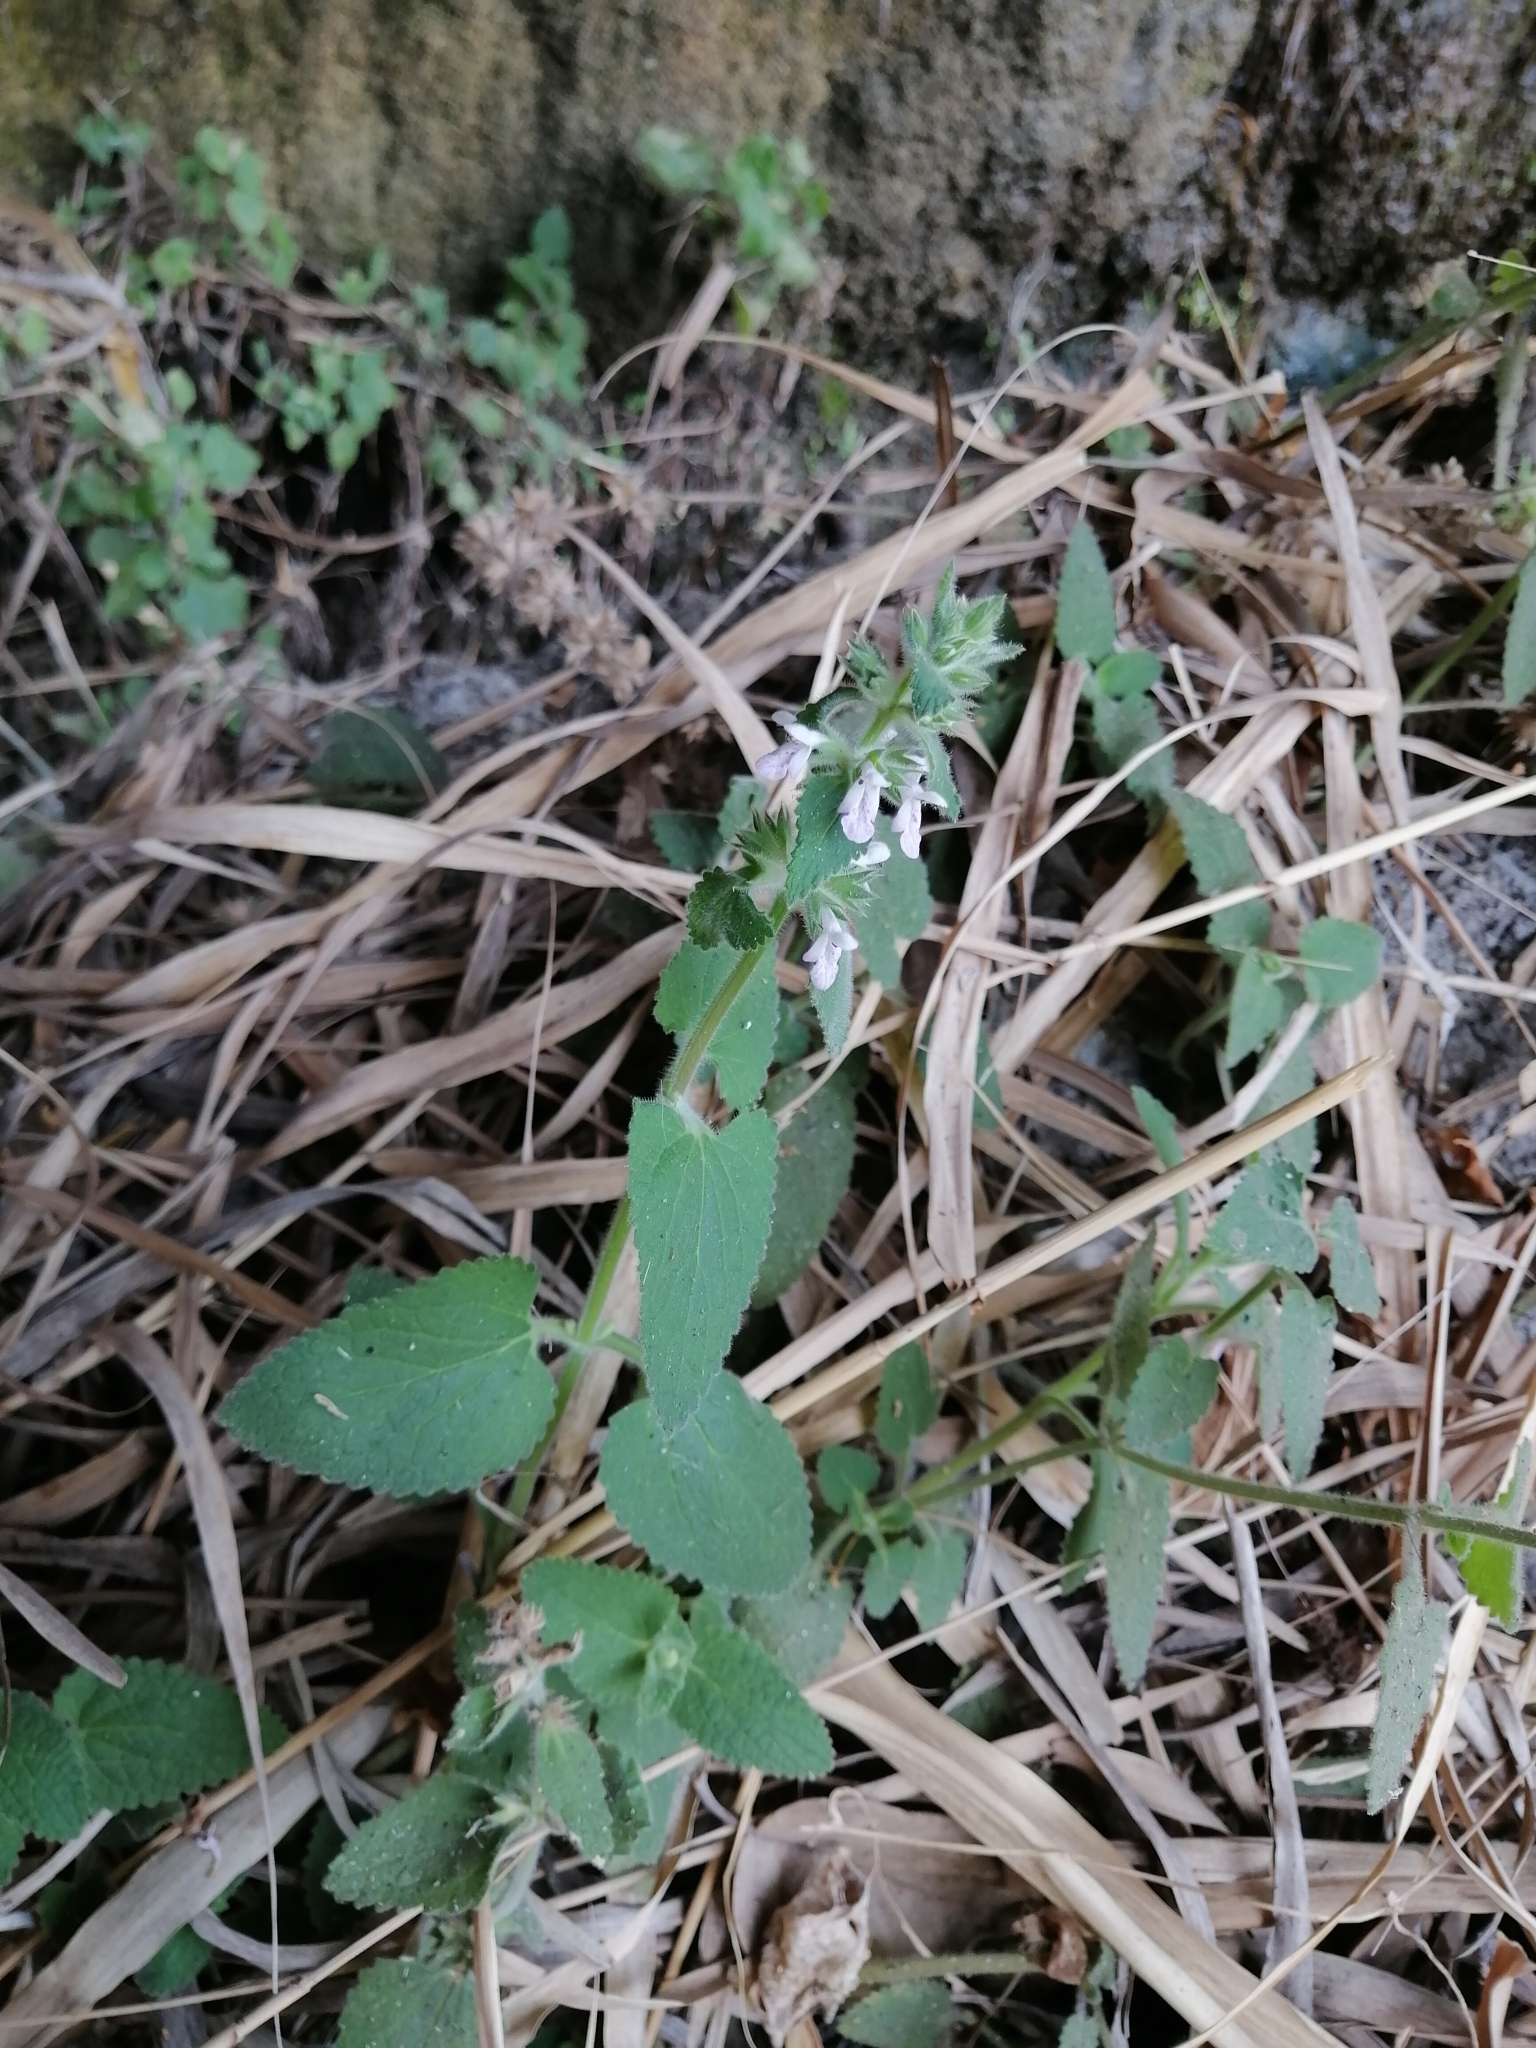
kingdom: Plantae
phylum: Tracheophyta
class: Magnoliopsida
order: Lamiales
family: Lamiaceae
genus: Stachys
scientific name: Stachys harkerae
